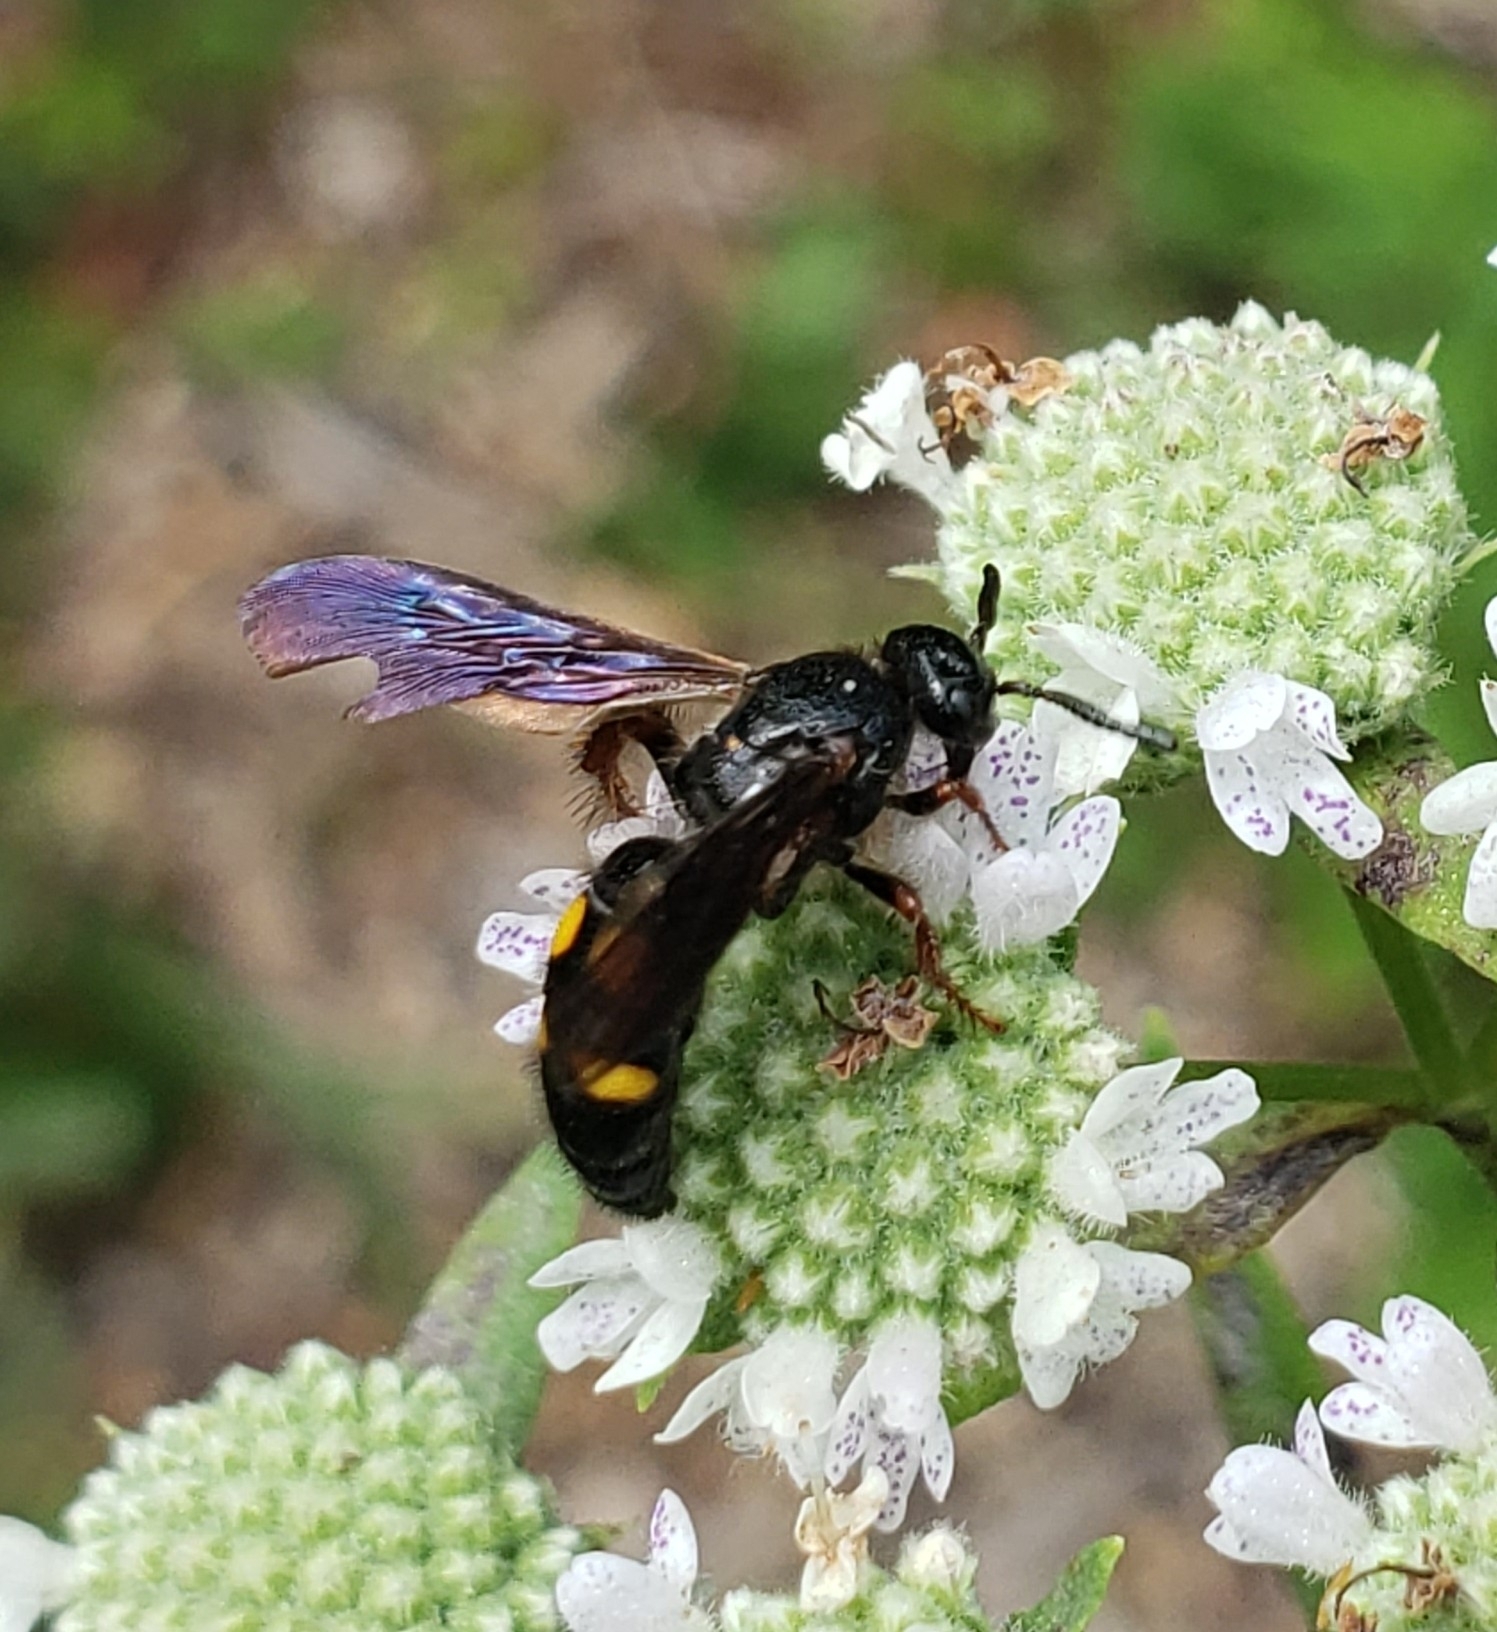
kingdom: Animalia
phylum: Arthropoda
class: Insecta
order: Hymenoptera
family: Scoliidae
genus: Scolia
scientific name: Scolia nobilitata
